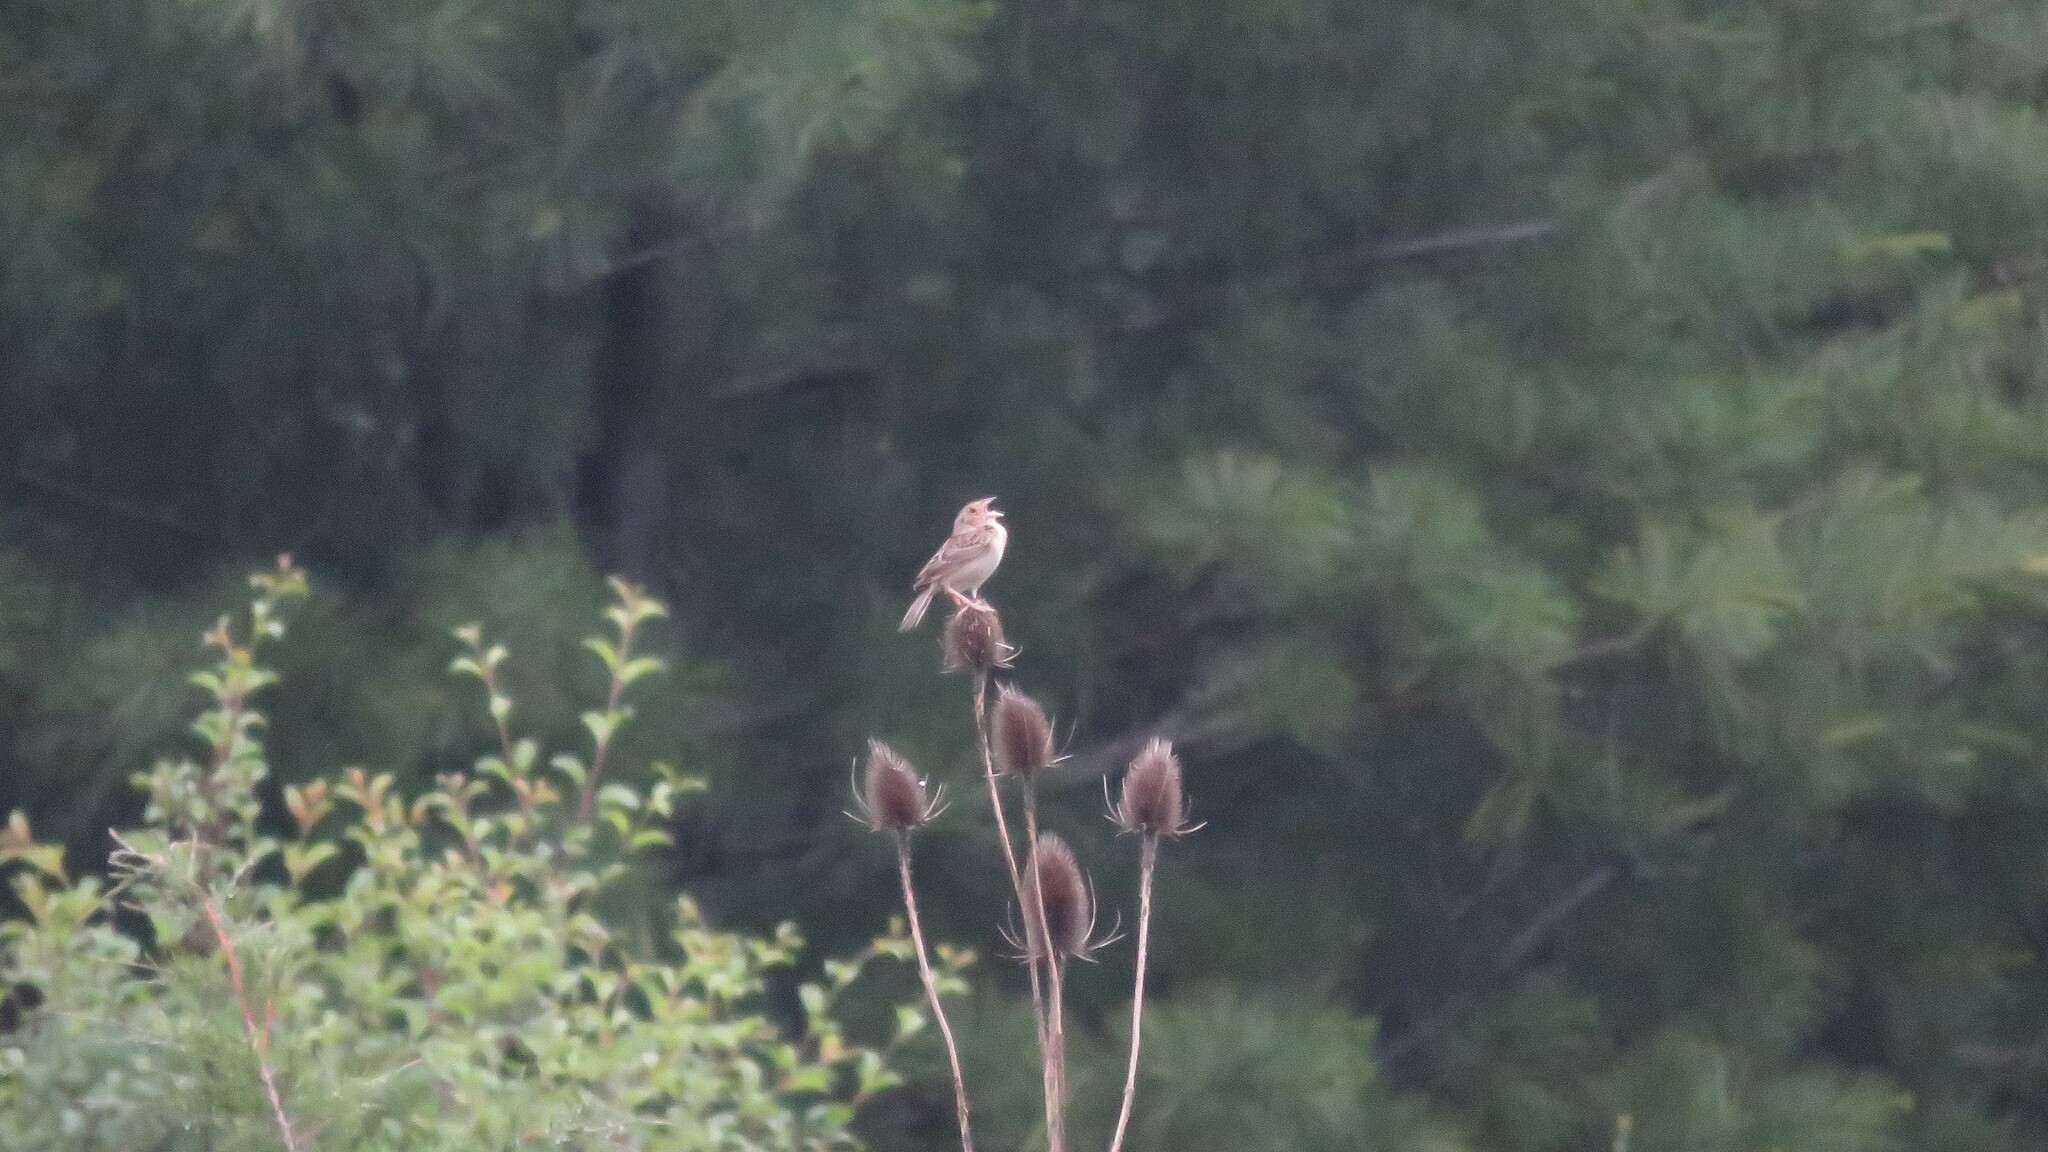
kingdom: Animalia
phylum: Chordata
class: Aves
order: Passeriformes
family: Passerellidae
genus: Ammodramus
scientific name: Ammodramus savannarum
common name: Grasshopper sparrow
